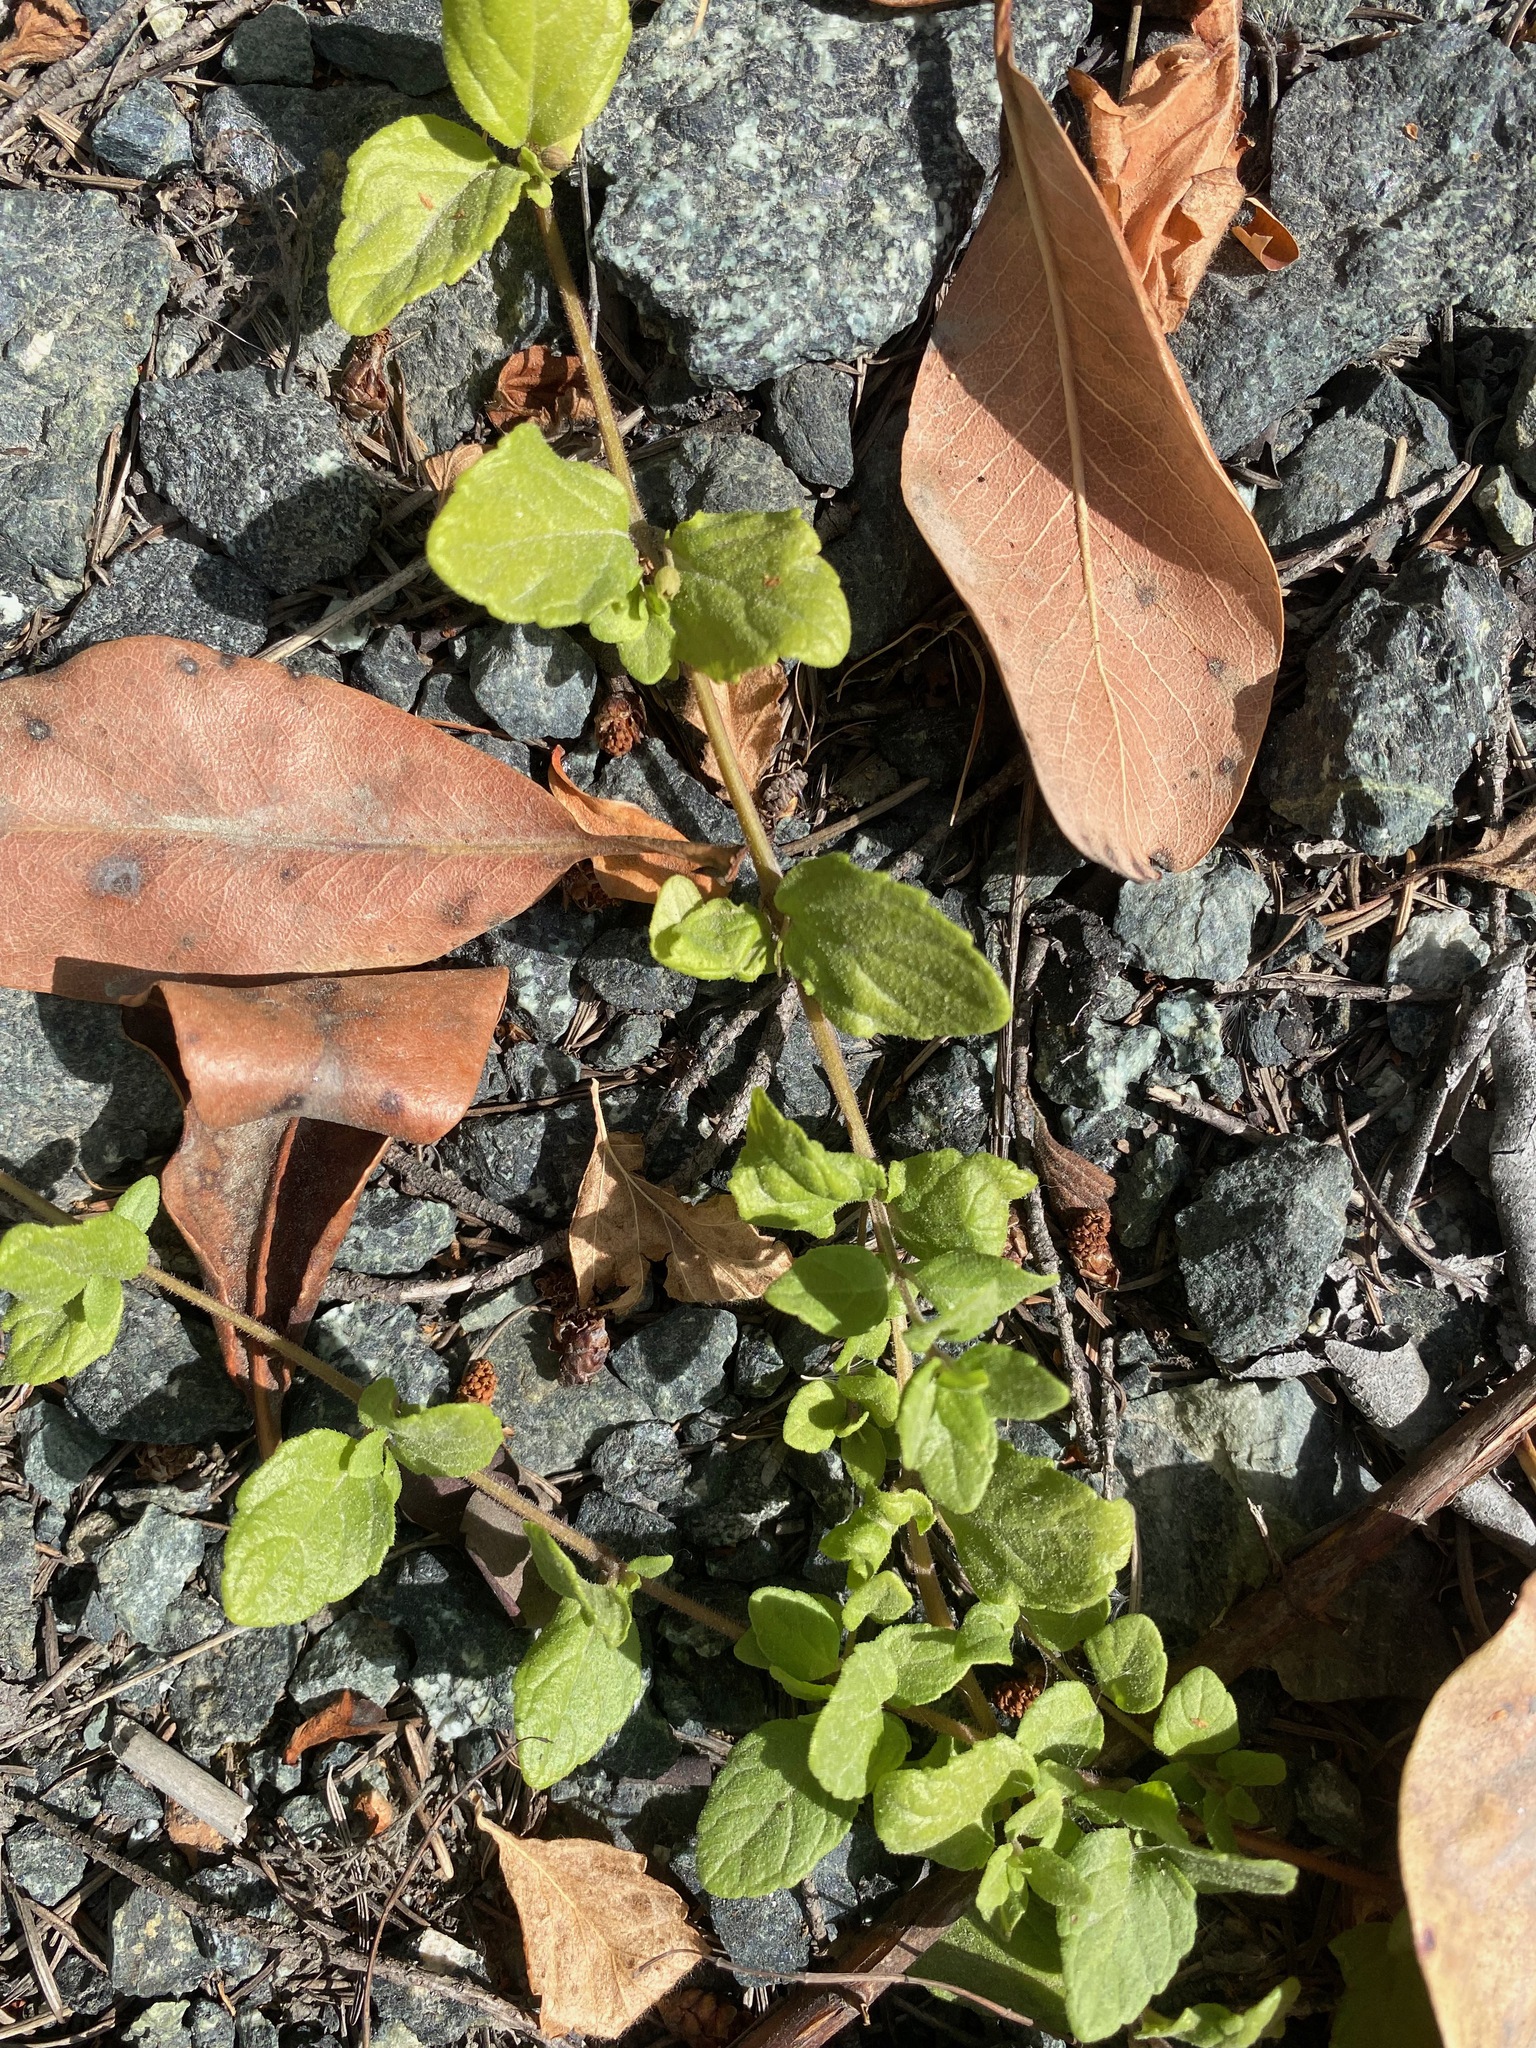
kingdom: Plantae
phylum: Tracheophyta
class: Magnoliopsida
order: Lamiales
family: Lamiaceae
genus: Micromeria
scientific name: Micromeria douglasii
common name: Yerba buena
